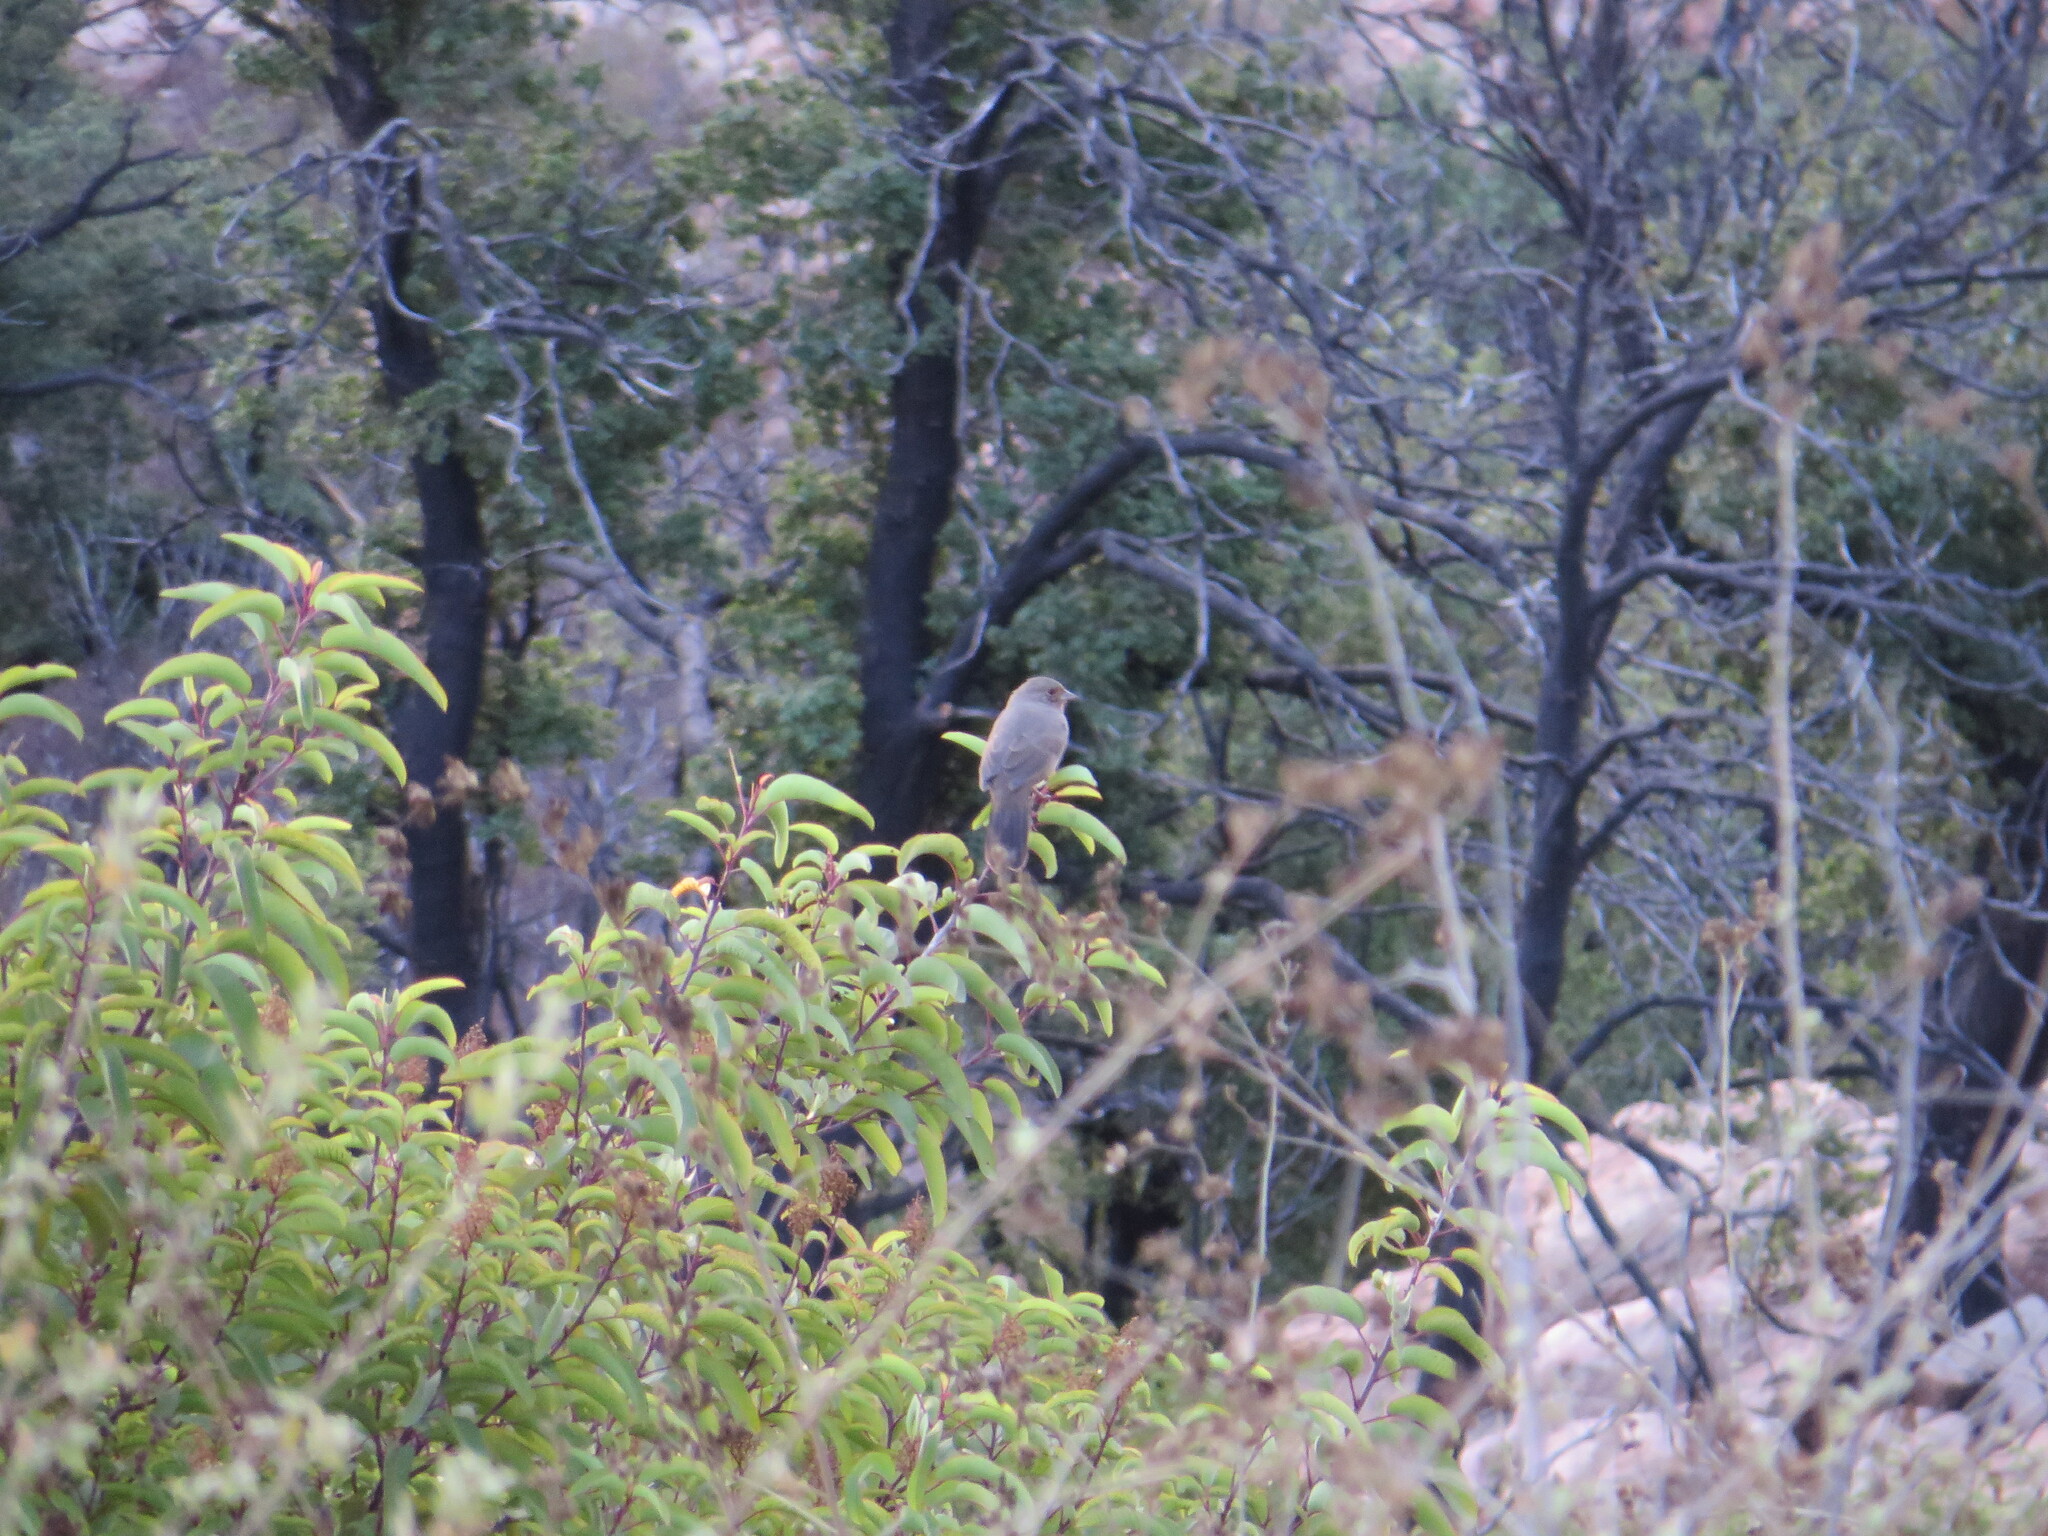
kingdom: Animalia
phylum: Chordata
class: Aves
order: Passeriformes
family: Passerellidae
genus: Melozone
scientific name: Melozone crissalis
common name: California towhee
